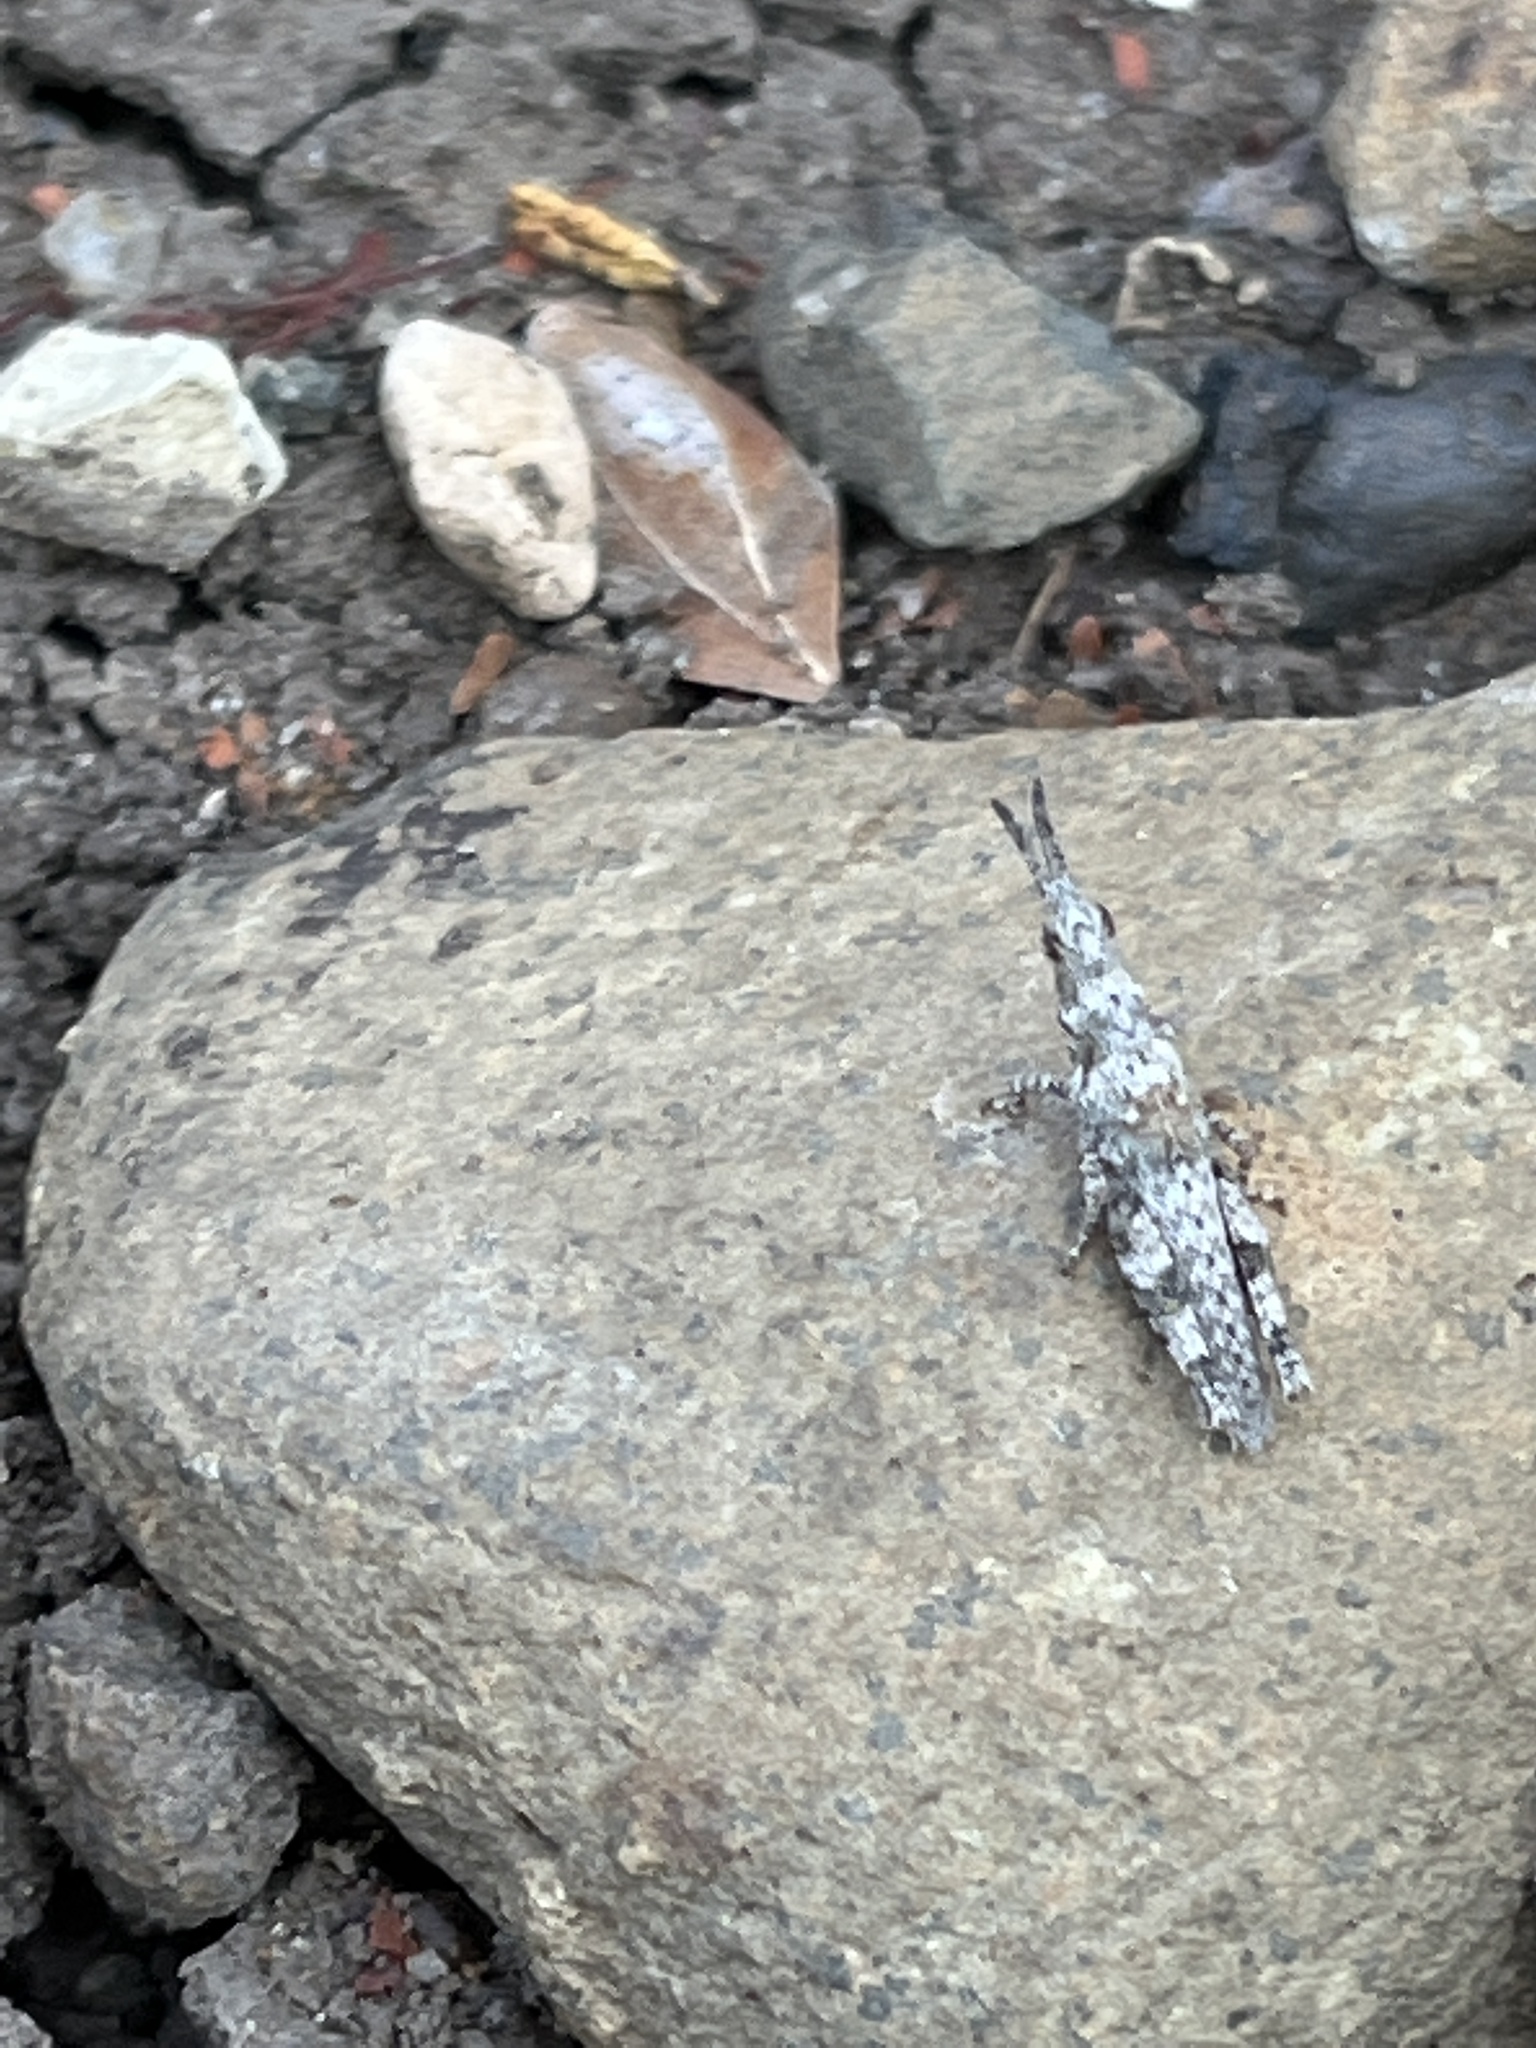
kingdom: Animalia
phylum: Arthropoda
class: Insecta
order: Orthoptera
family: Pyrgomorphidae
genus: Pyrgomorpha
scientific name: Pyrgomorpha conica
